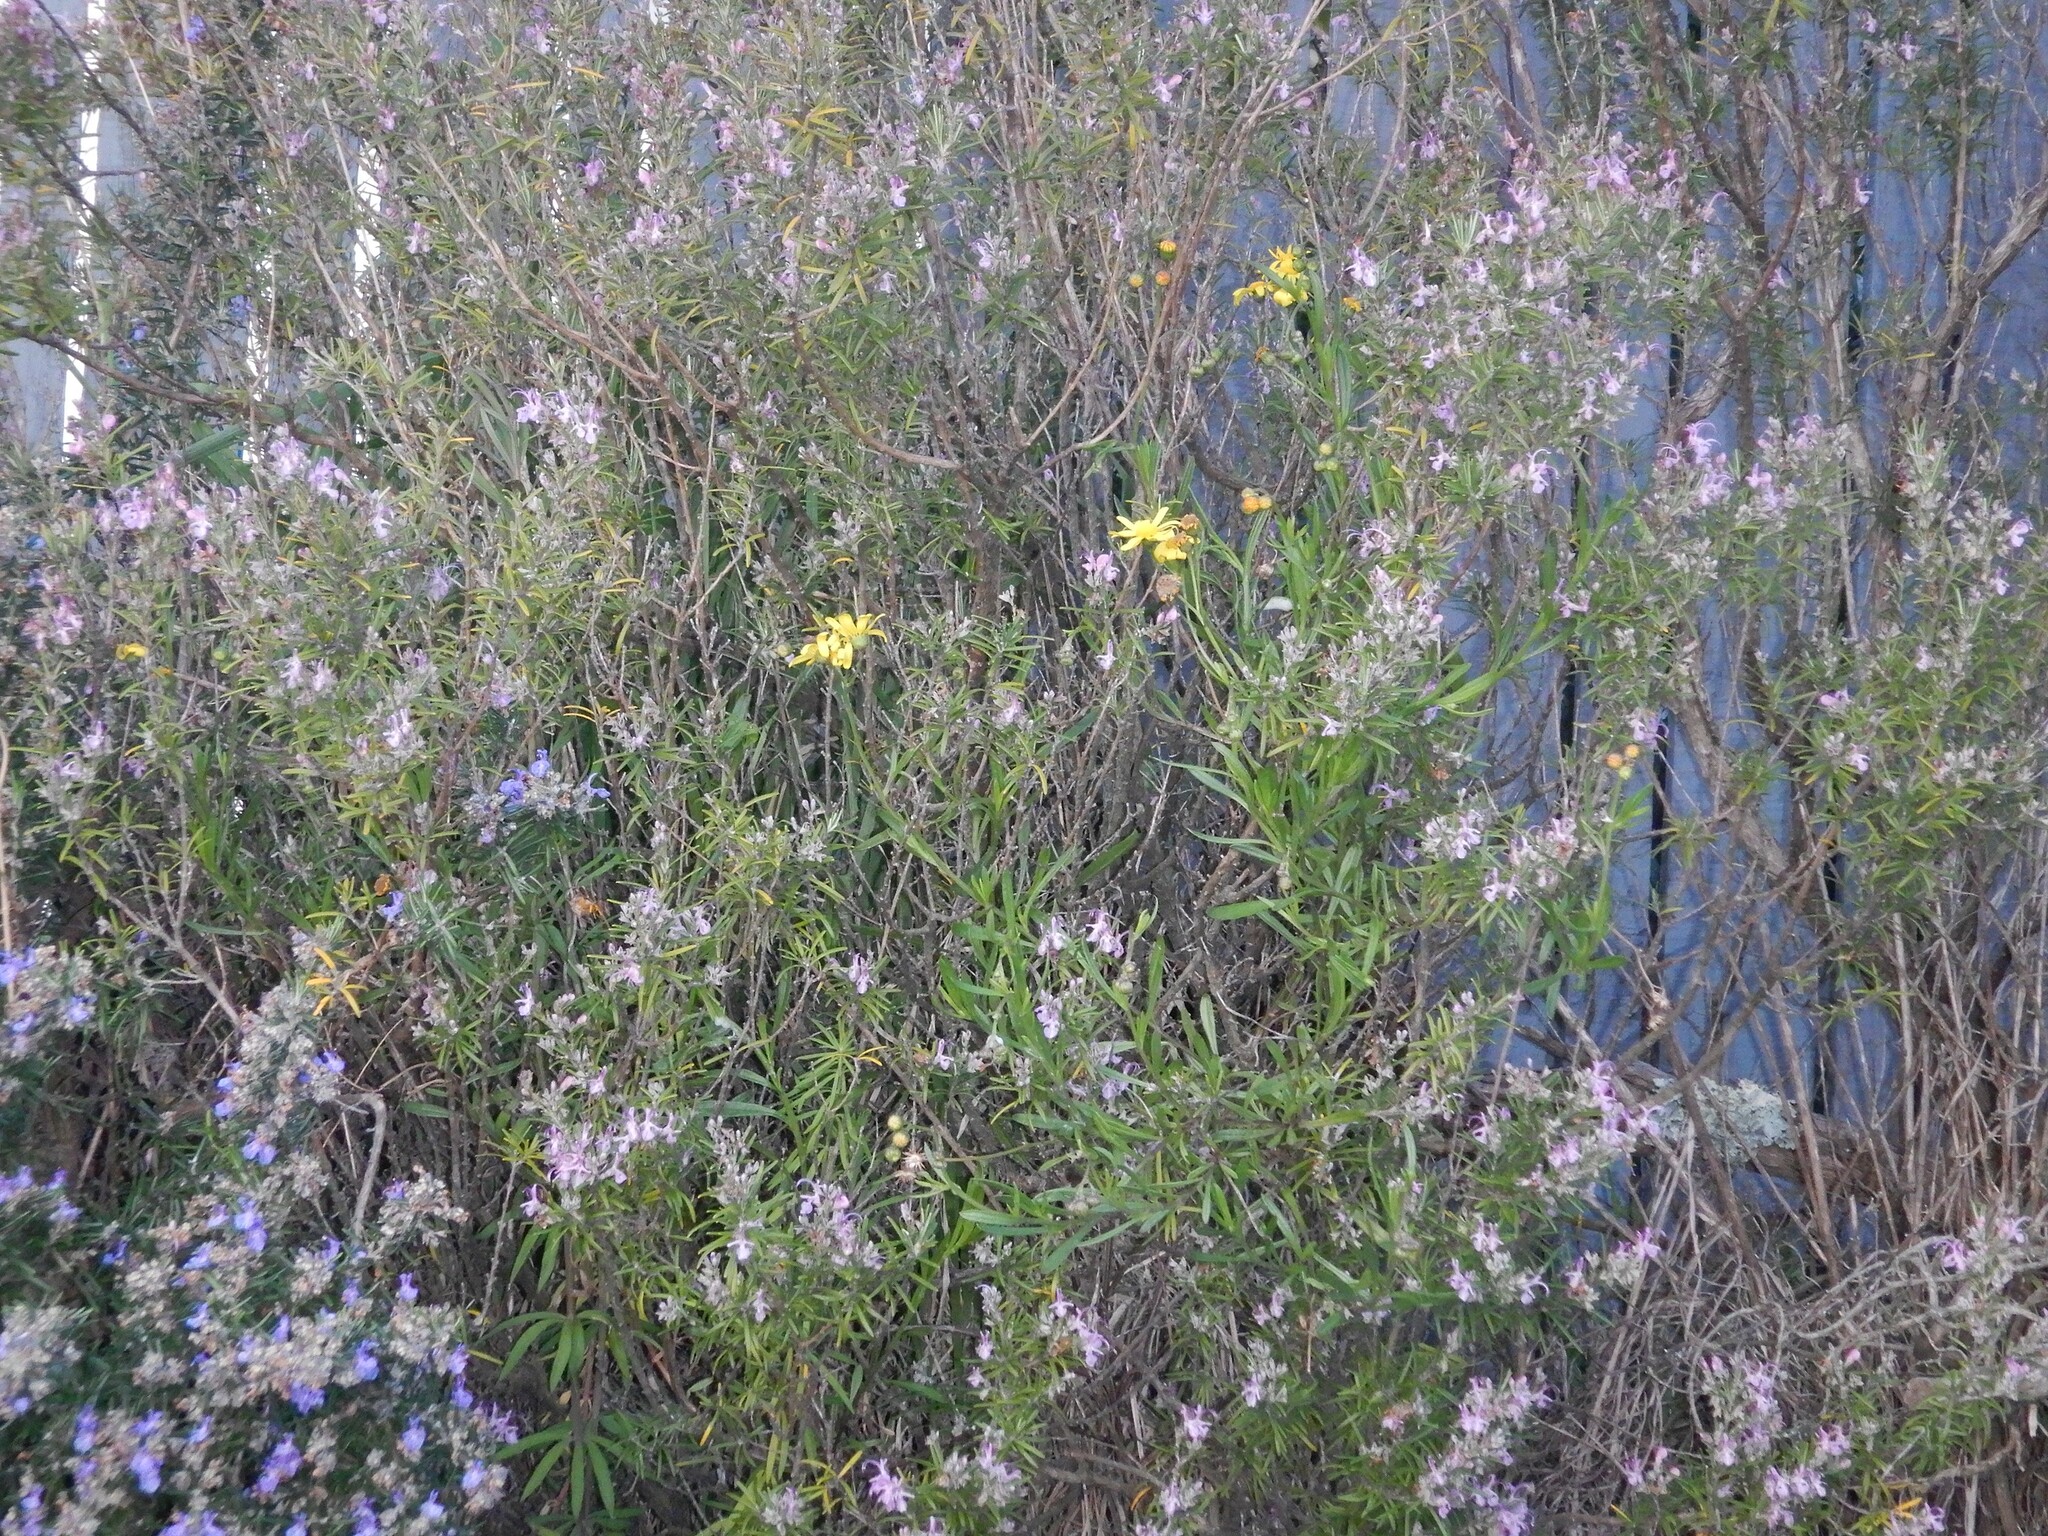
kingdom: Plantae
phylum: Tracheophyta
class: Magnoliopsida
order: Asterales
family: Asteraceae
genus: Senecio
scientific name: Senecio skirrhodon
